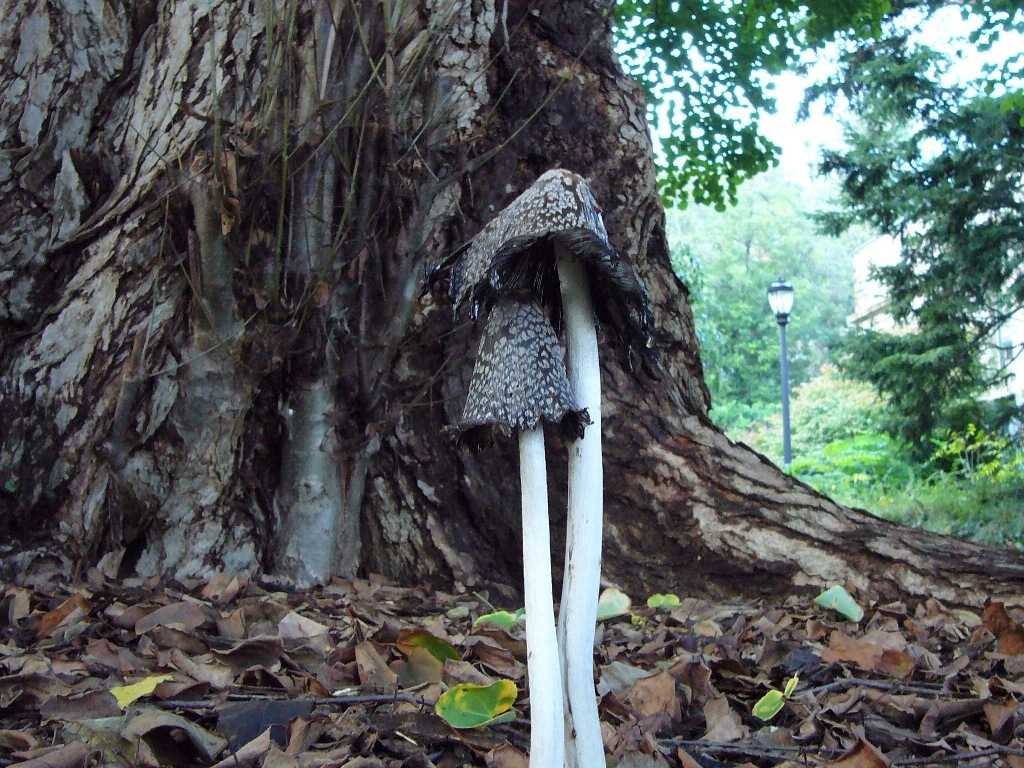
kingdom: Fungi
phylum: Basidiomycota
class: Agaricomycetes
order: Agaricales
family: Psathyrellaceae
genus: Coprinopsis
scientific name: Coprinopsis picacea
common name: Magpie inkcap
